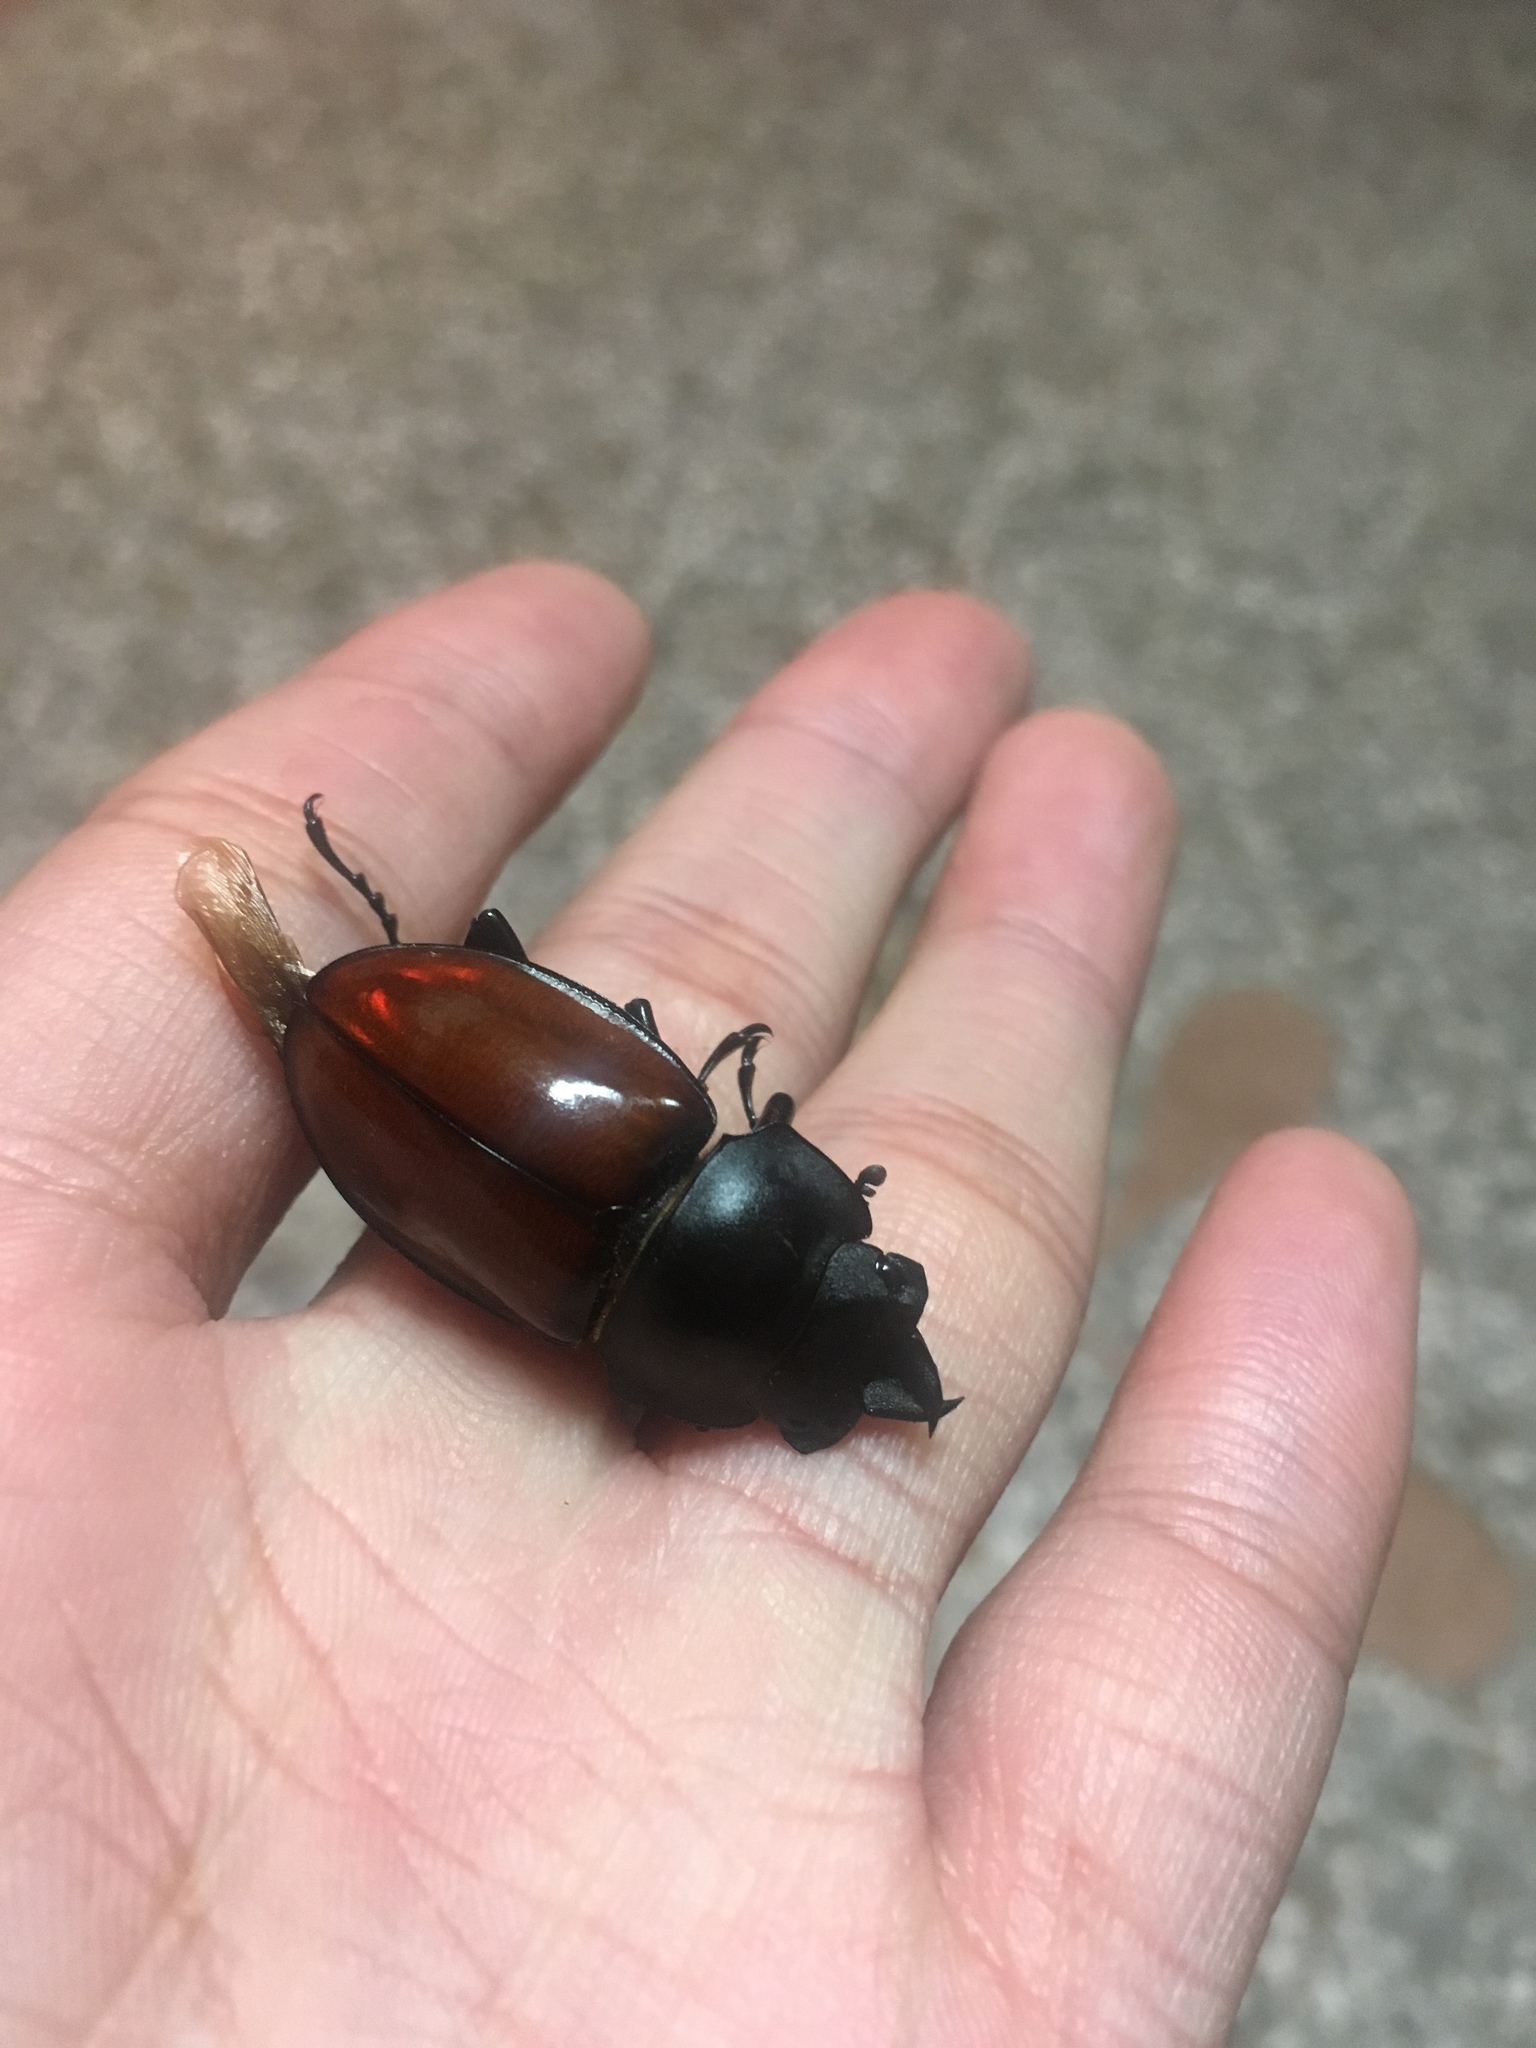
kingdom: Animalia
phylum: Arthropoda
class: Insecta
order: Coleoptera
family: Lucanidae
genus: Neolucanus
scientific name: Neolucanus swinhoei
